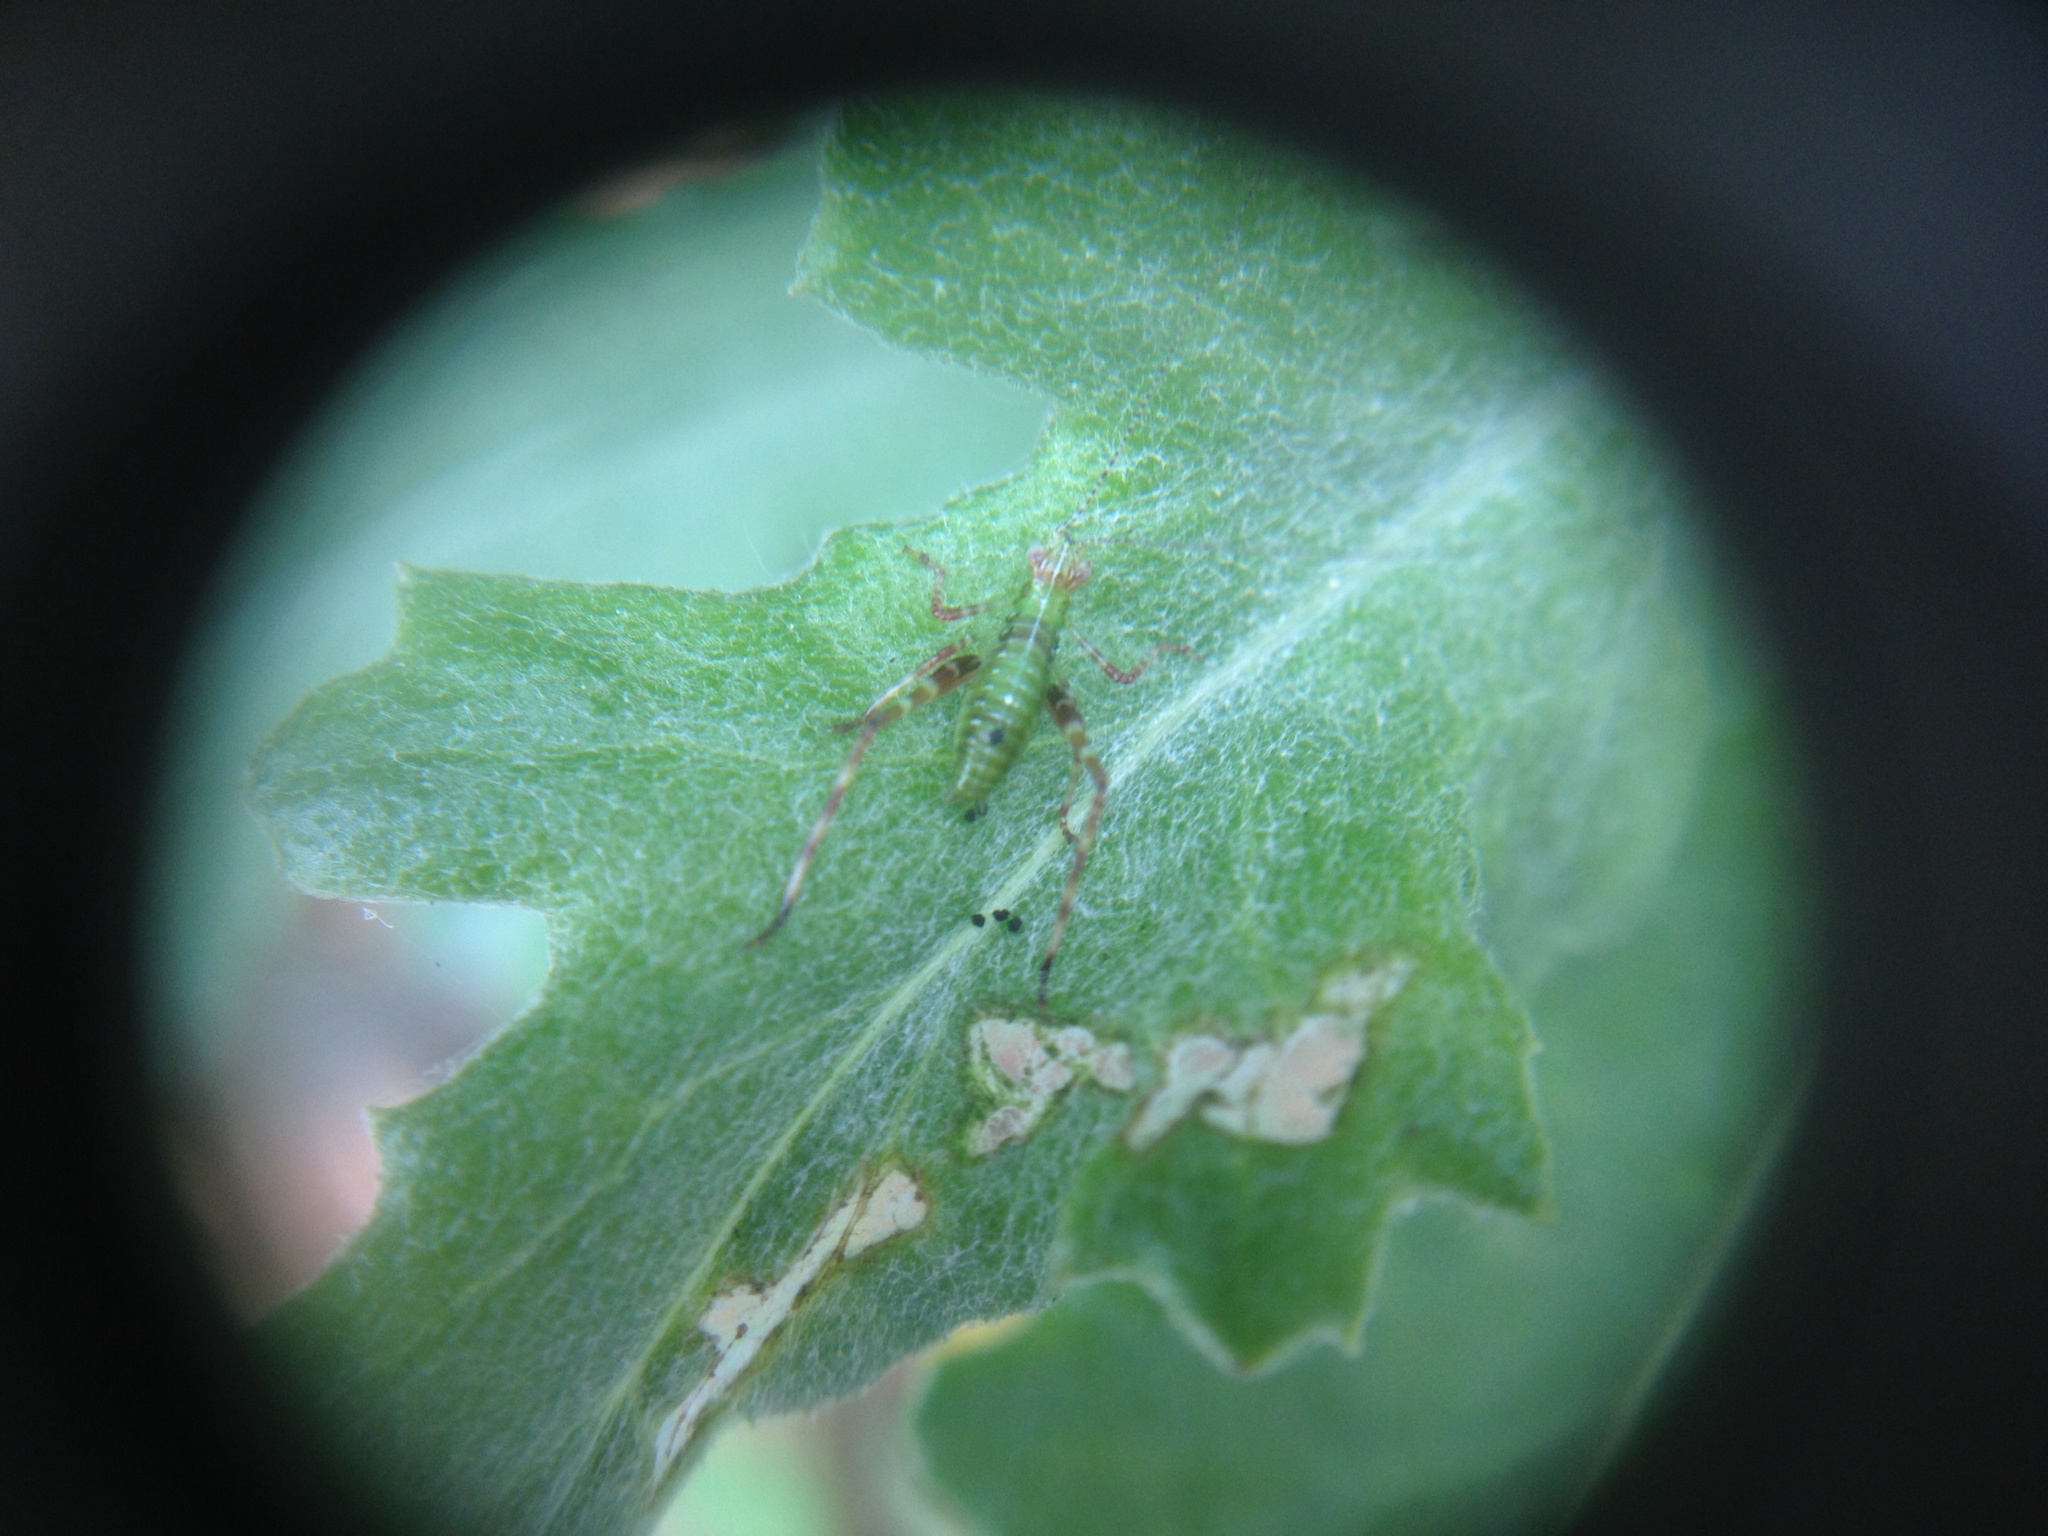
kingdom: Animalia
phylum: Arthropoda
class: Insecta
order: Orthoptera
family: Tettigoniidae
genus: Caedicia
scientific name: Caedicia simplex
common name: Common garden katydid
